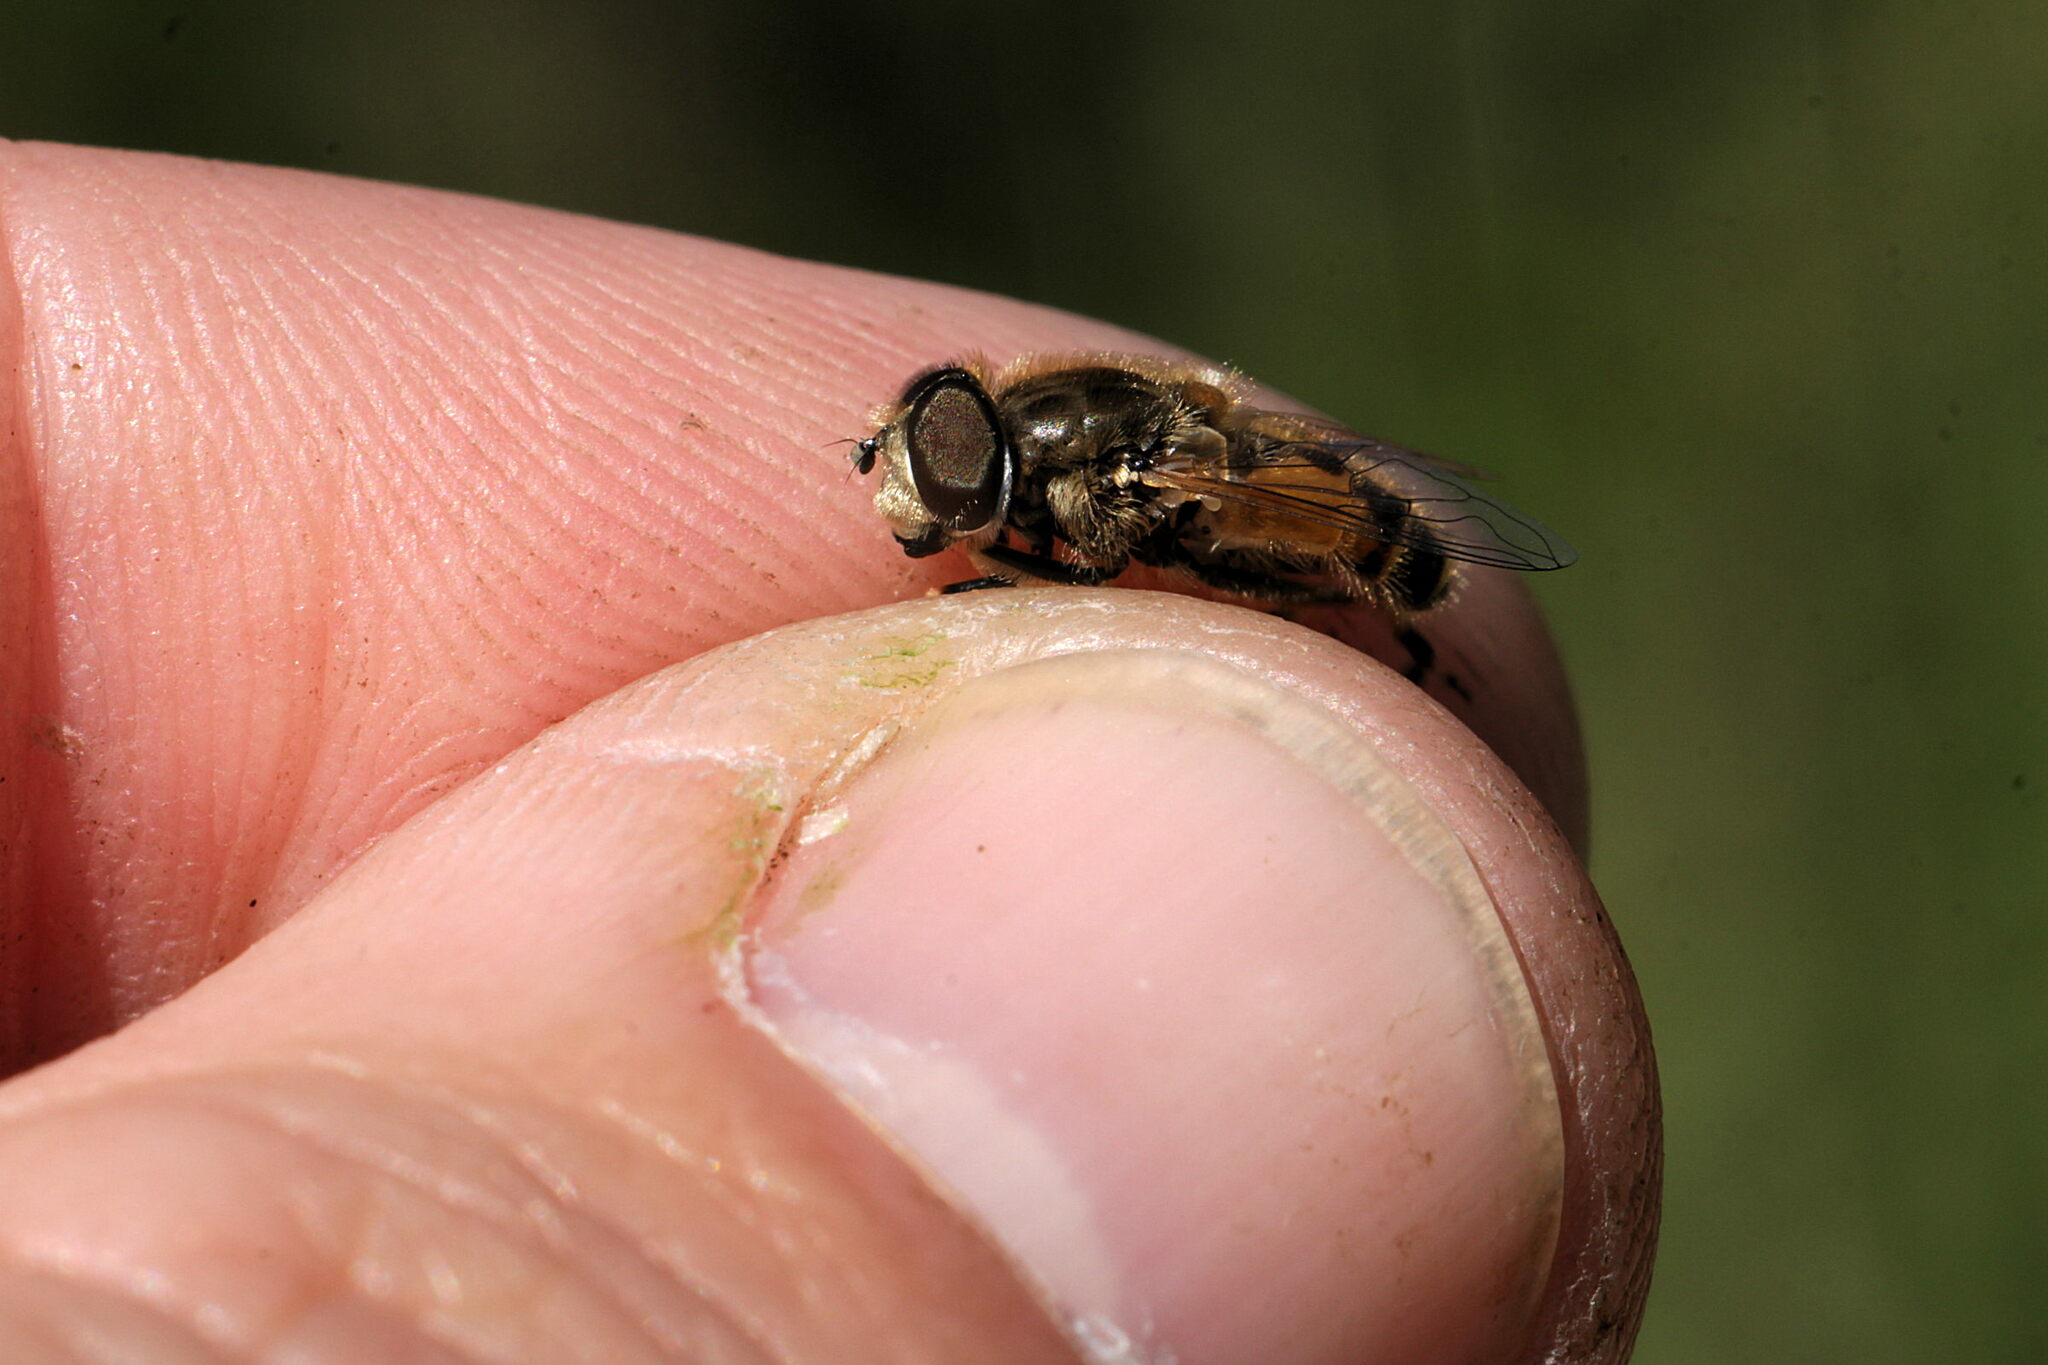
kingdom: Animalia
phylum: Arthropoda
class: Insecta
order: Diptera
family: Syrphidae
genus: Eristalis
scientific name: Eristalis arbustorum
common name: Hover fly
